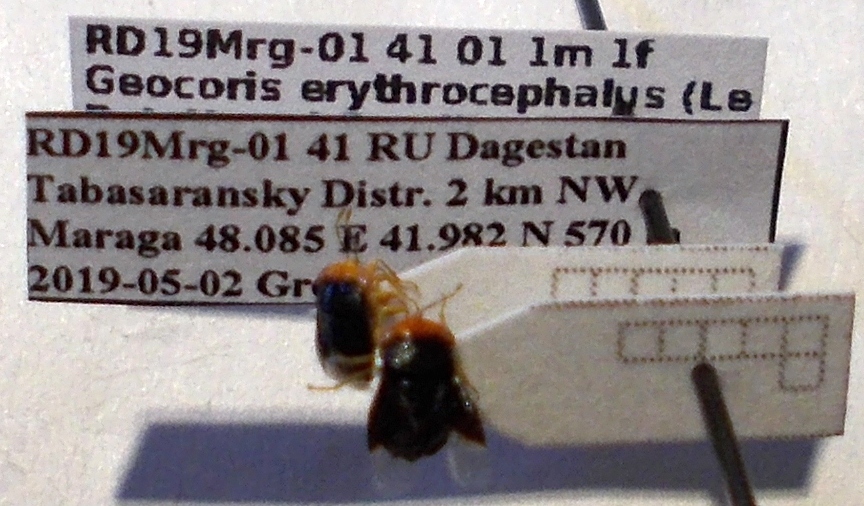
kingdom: Animalia
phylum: Arthropoda
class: Insecta
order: Hemiptera
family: Geocoridae
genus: Geocoris
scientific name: Geocoris erythrocephala
